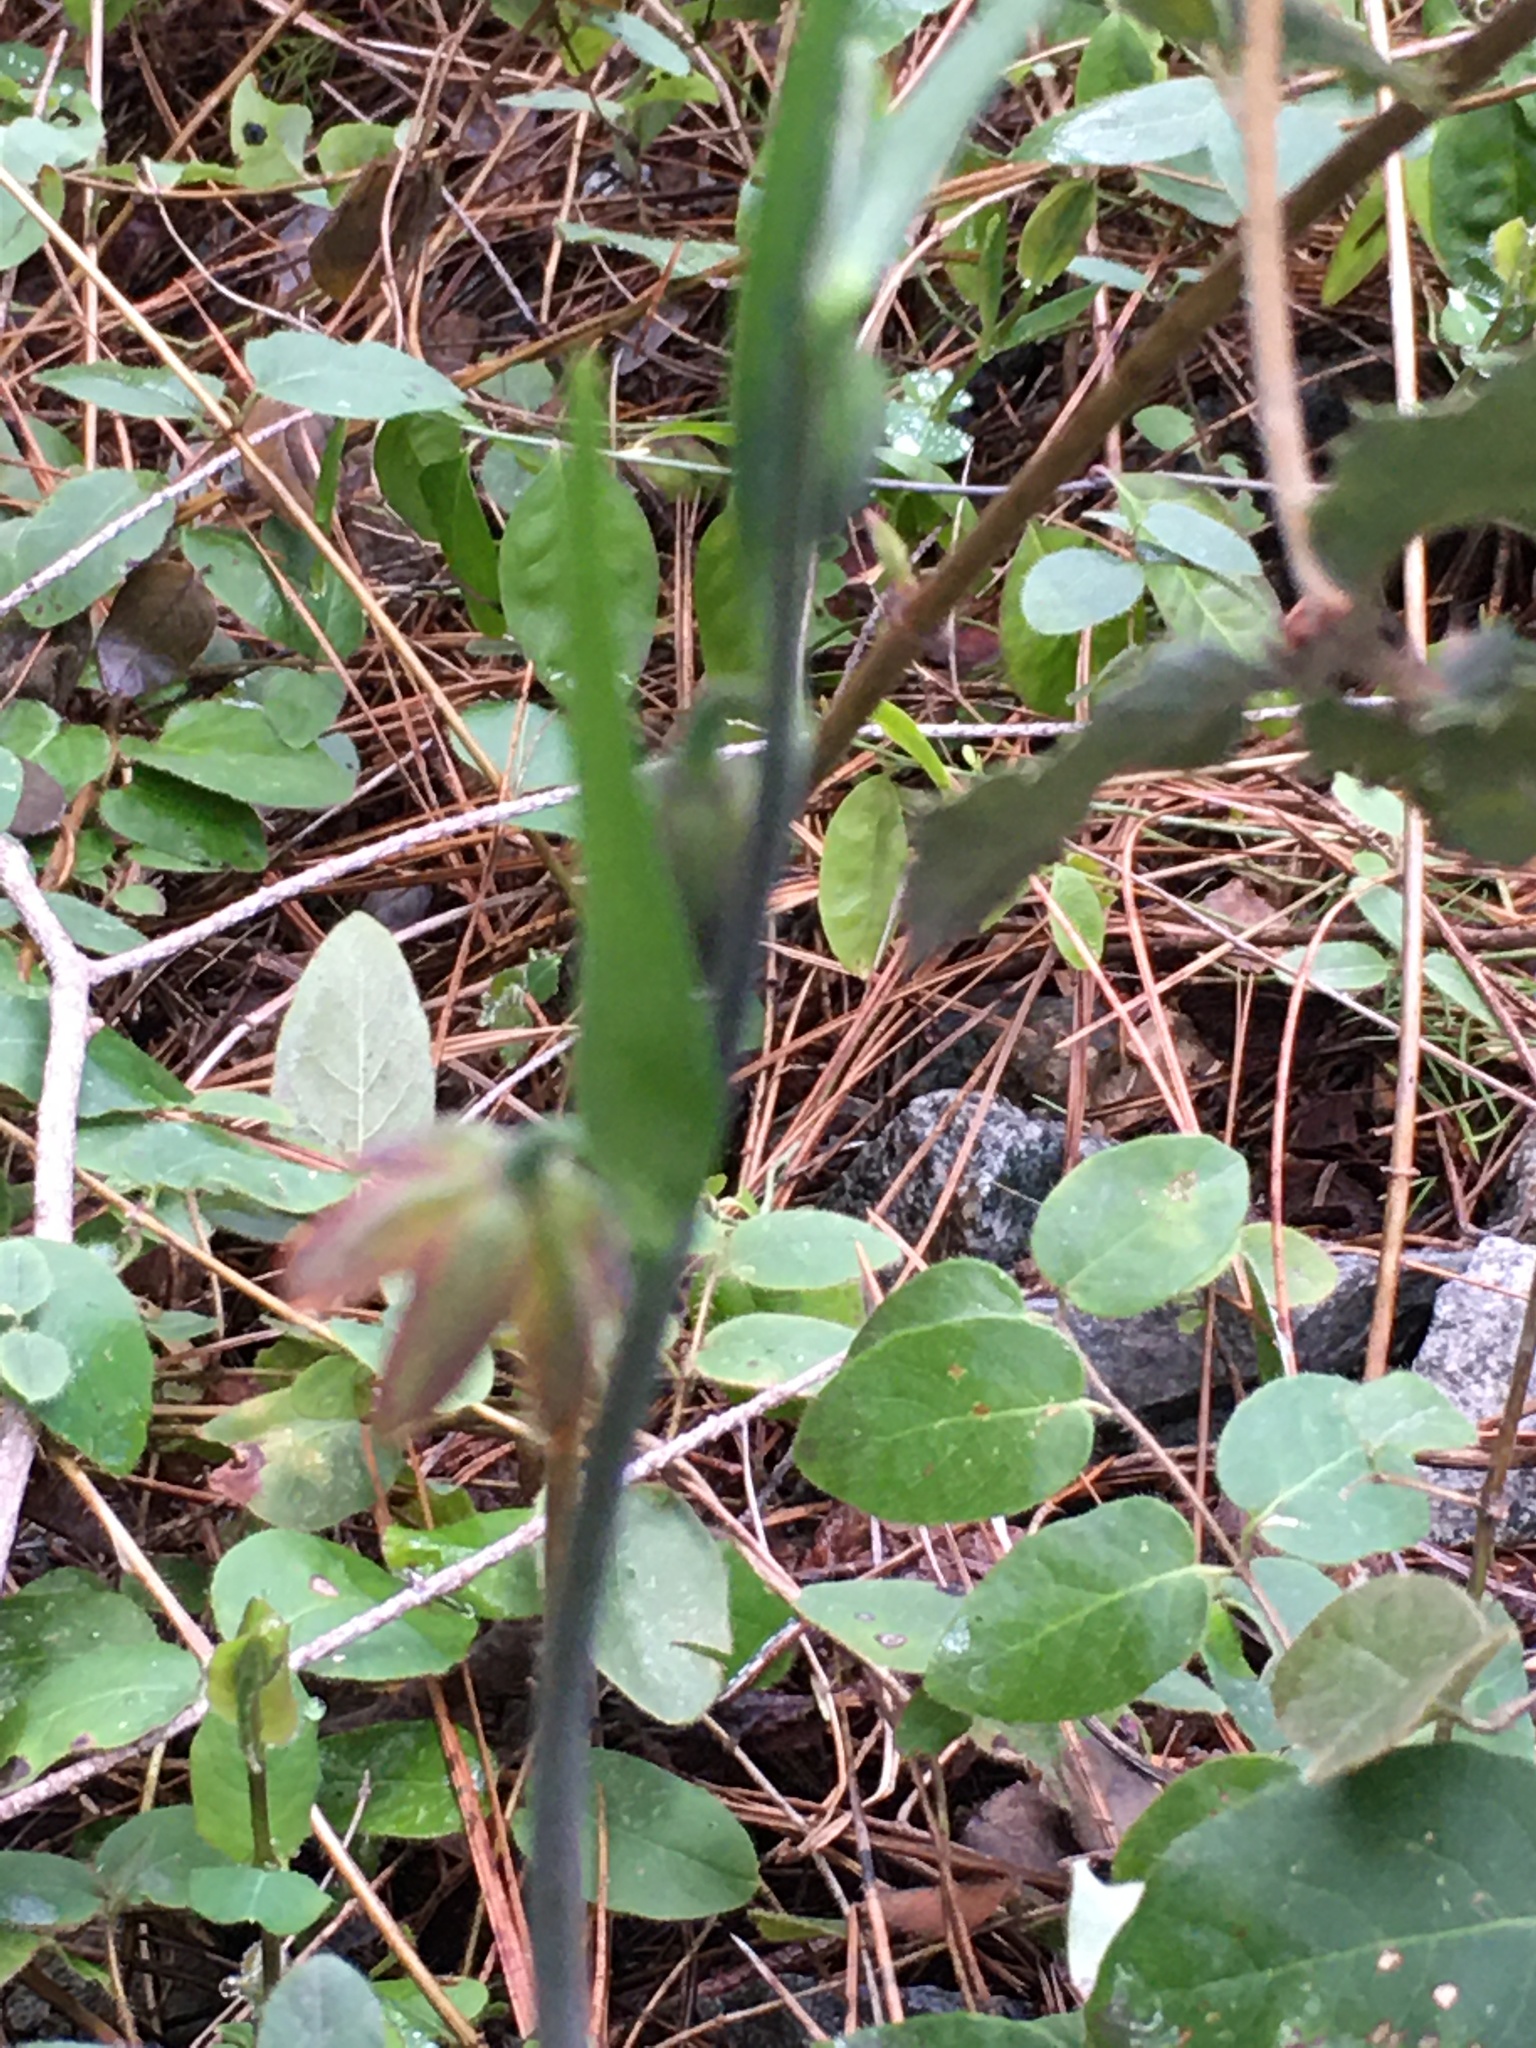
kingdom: Plantae
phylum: Tracheophyta
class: Liliopsida
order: Liliales
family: Liliaceae
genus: Fritillaria
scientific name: Fritillaria micrantha
